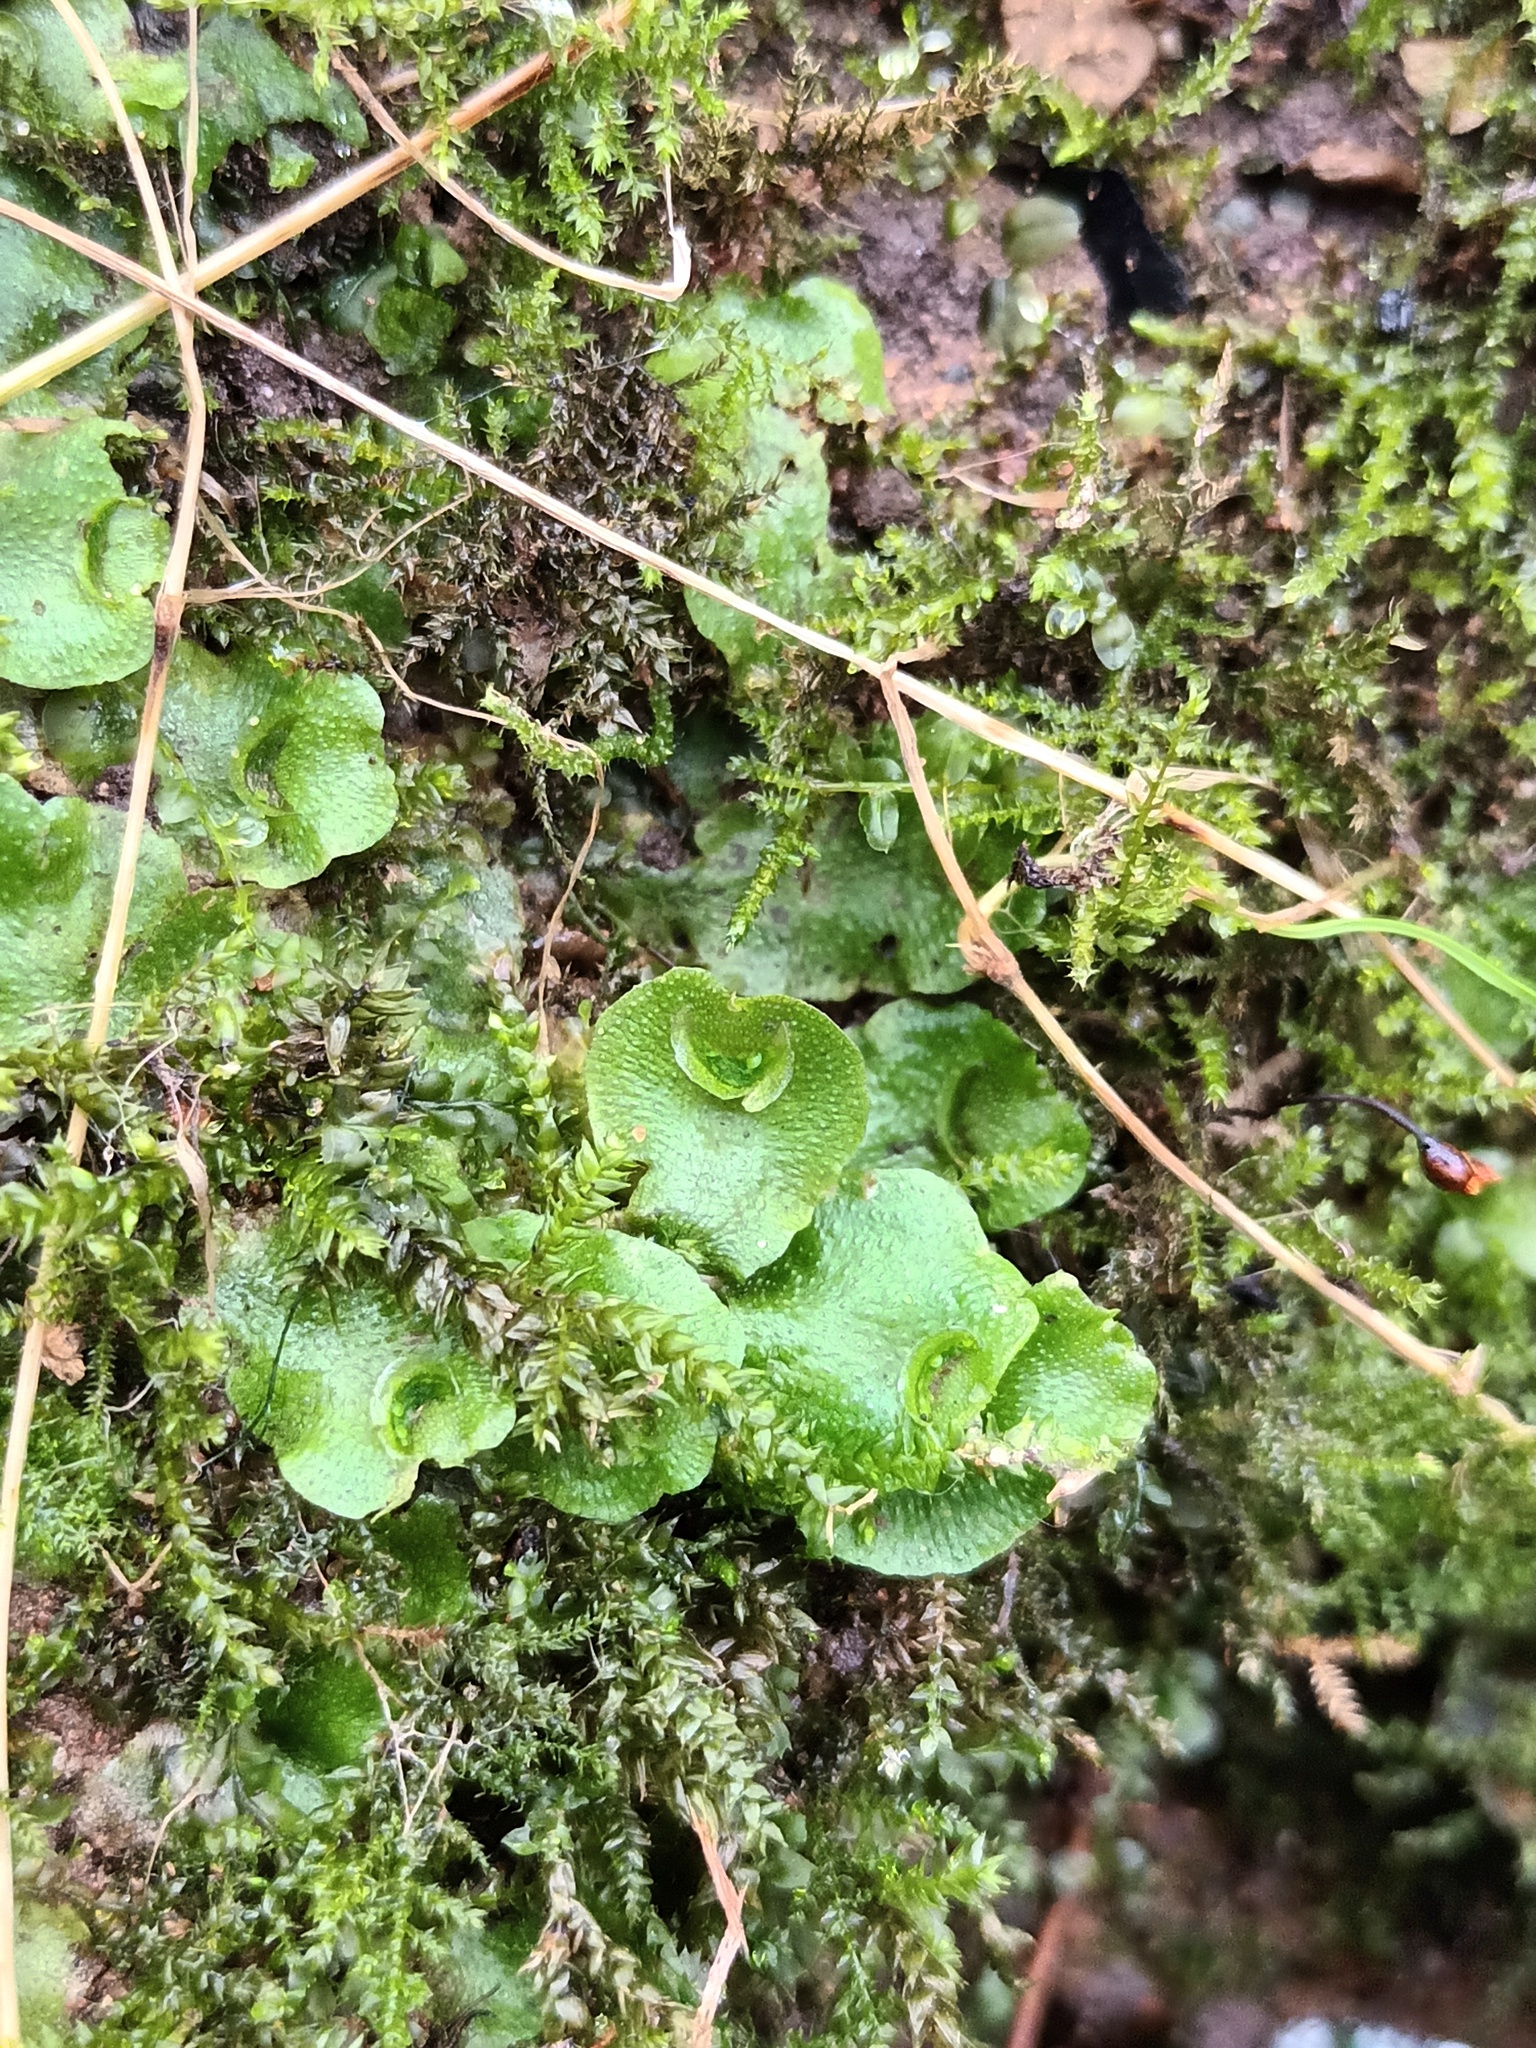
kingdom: Plantae
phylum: Marchantiophyta
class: Marchantiopsida
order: Lunulariales
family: Lunulariaceae
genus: Lunularia
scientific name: Lunularia cruciata
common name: Crescent-cup liverwort
